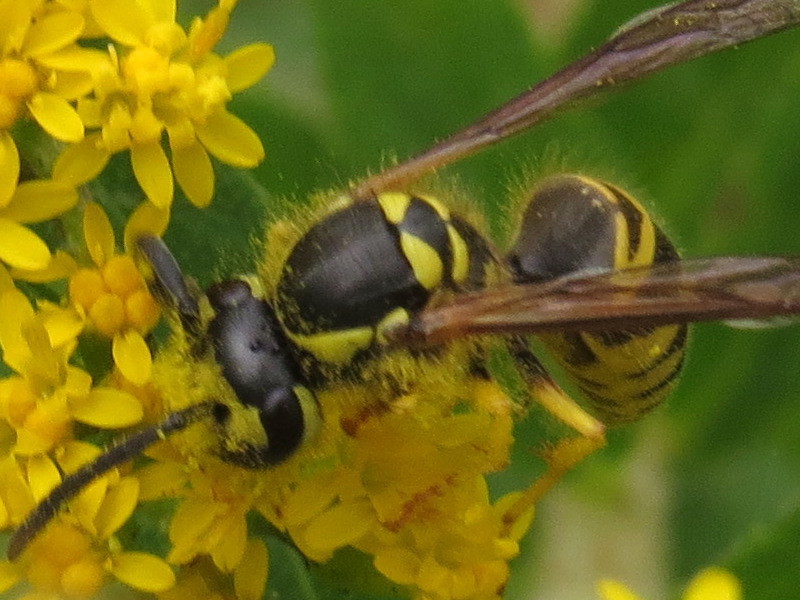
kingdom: Animalia
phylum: Arthropoda
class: Insecta
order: Hymenoptera
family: Vespidae
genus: Vespula
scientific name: Vespula maculifrons
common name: Eastern yellowjacket
